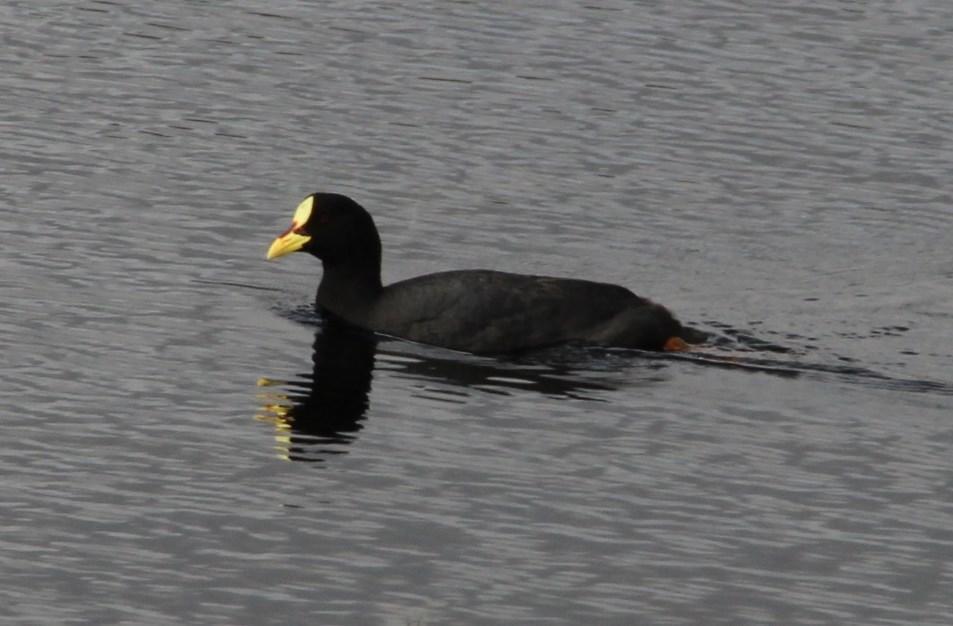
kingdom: Animalia
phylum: Chordata
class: Aves
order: Gruiformes
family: Rallidae
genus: Fulica
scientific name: Fulica armillata
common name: Red-gartered coot
